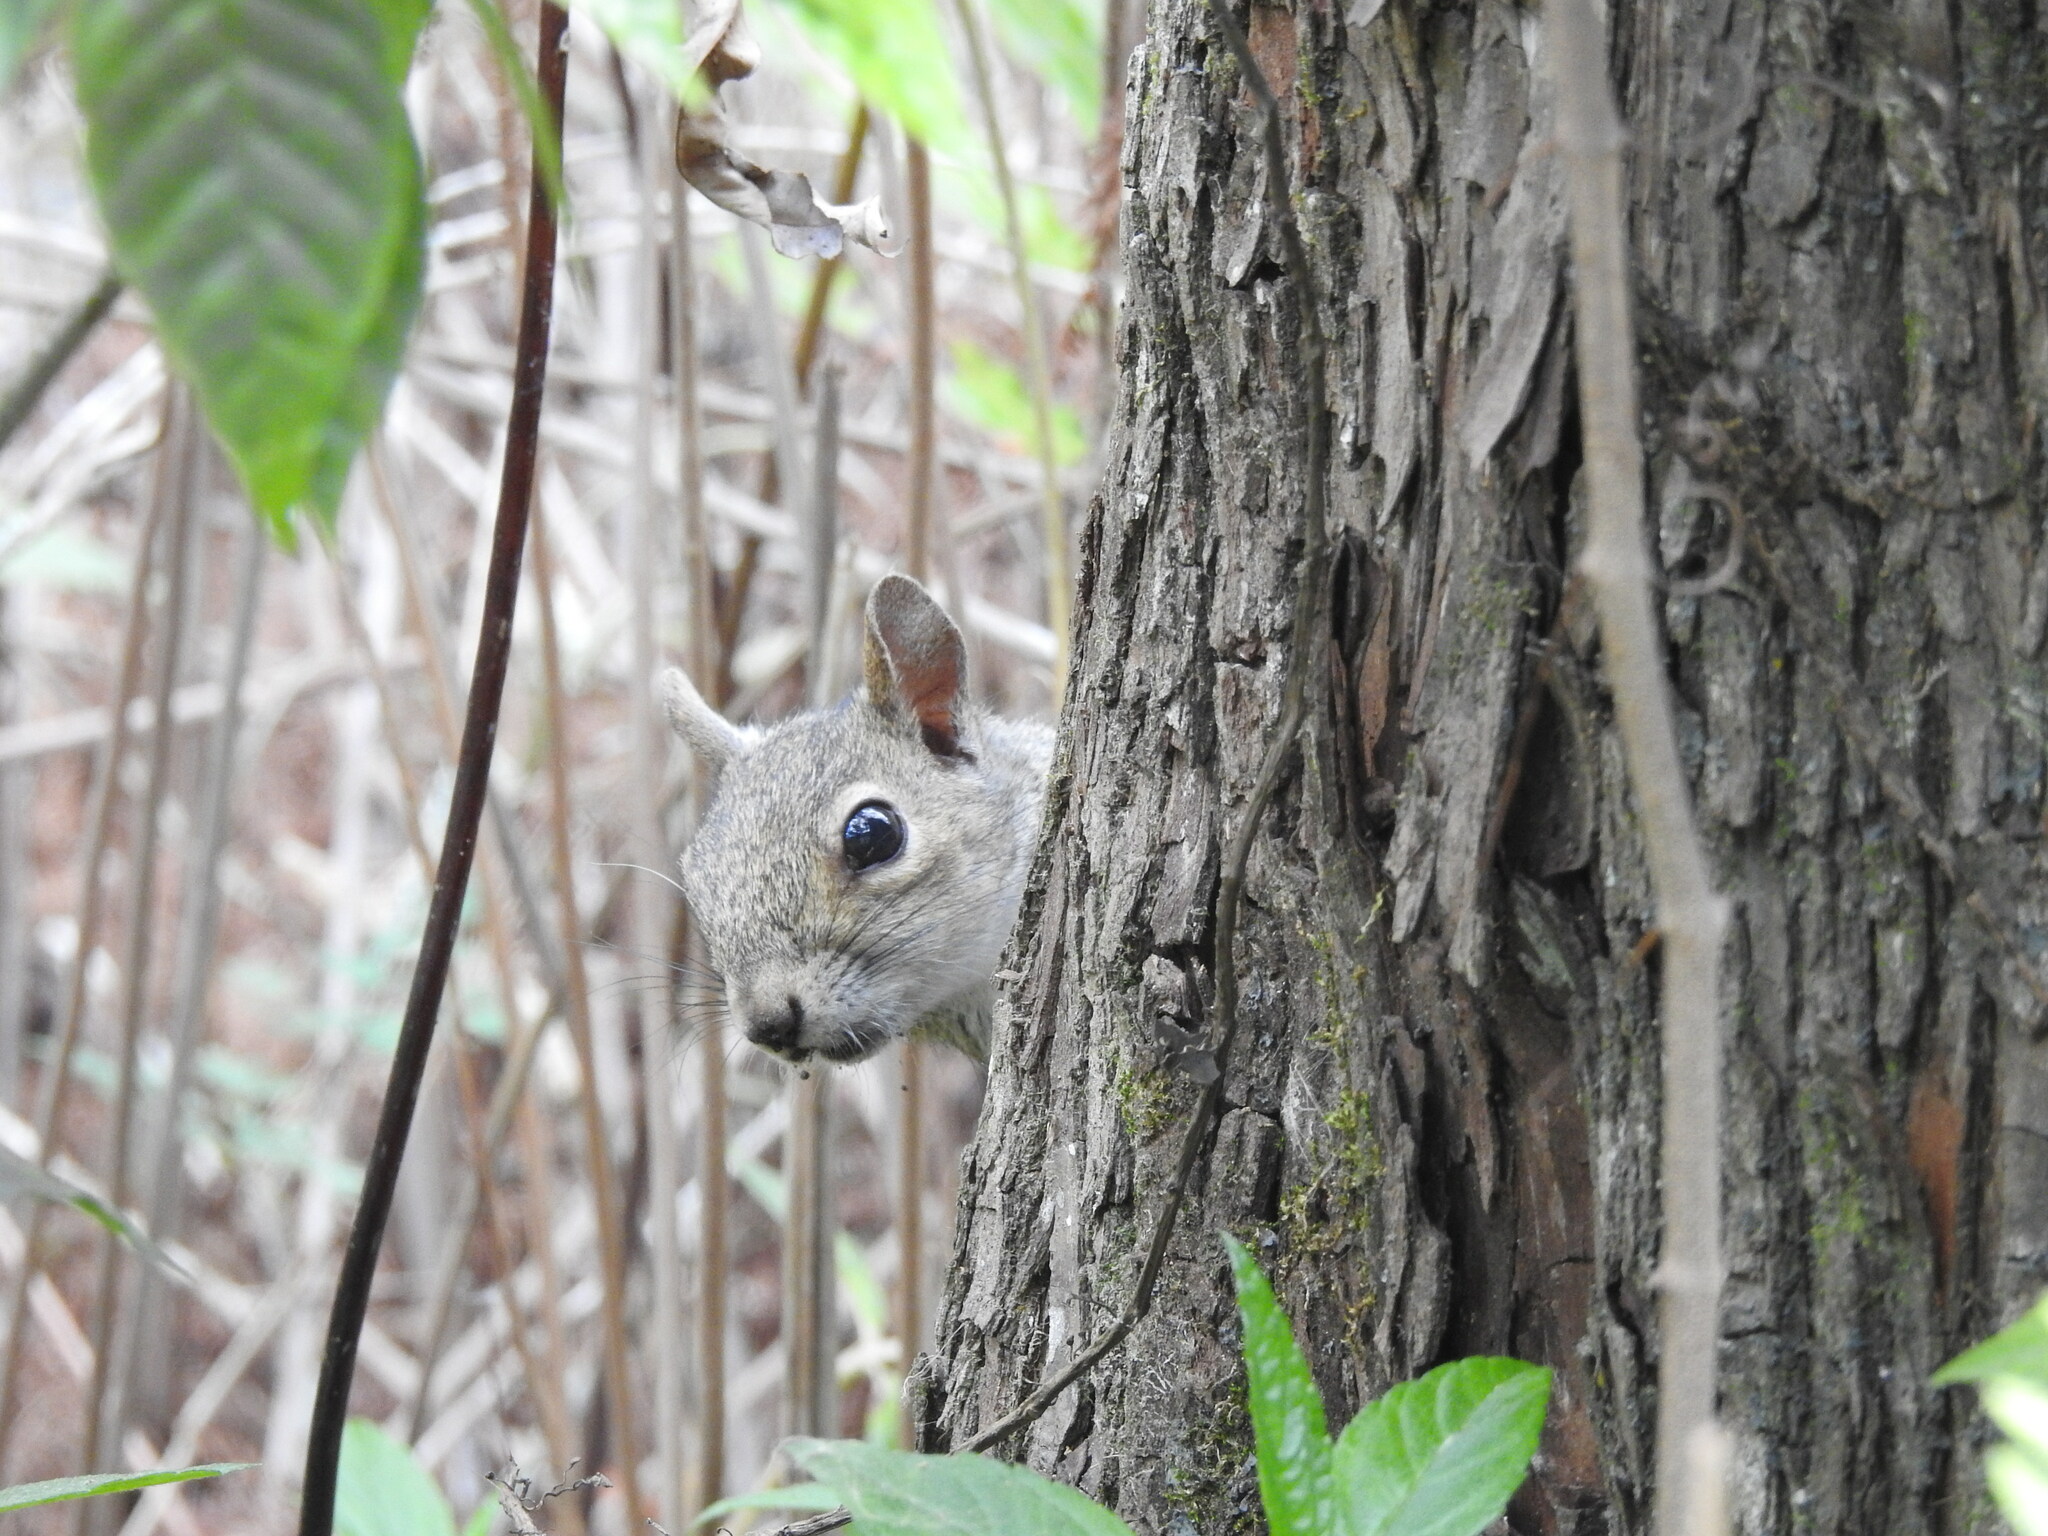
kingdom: Animalia
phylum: Chordata
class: Mammalia
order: Rodentia
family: Sciuridae
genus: Sciurus
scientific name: Sciurus carolinensis
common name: Eastern gray squirrel
